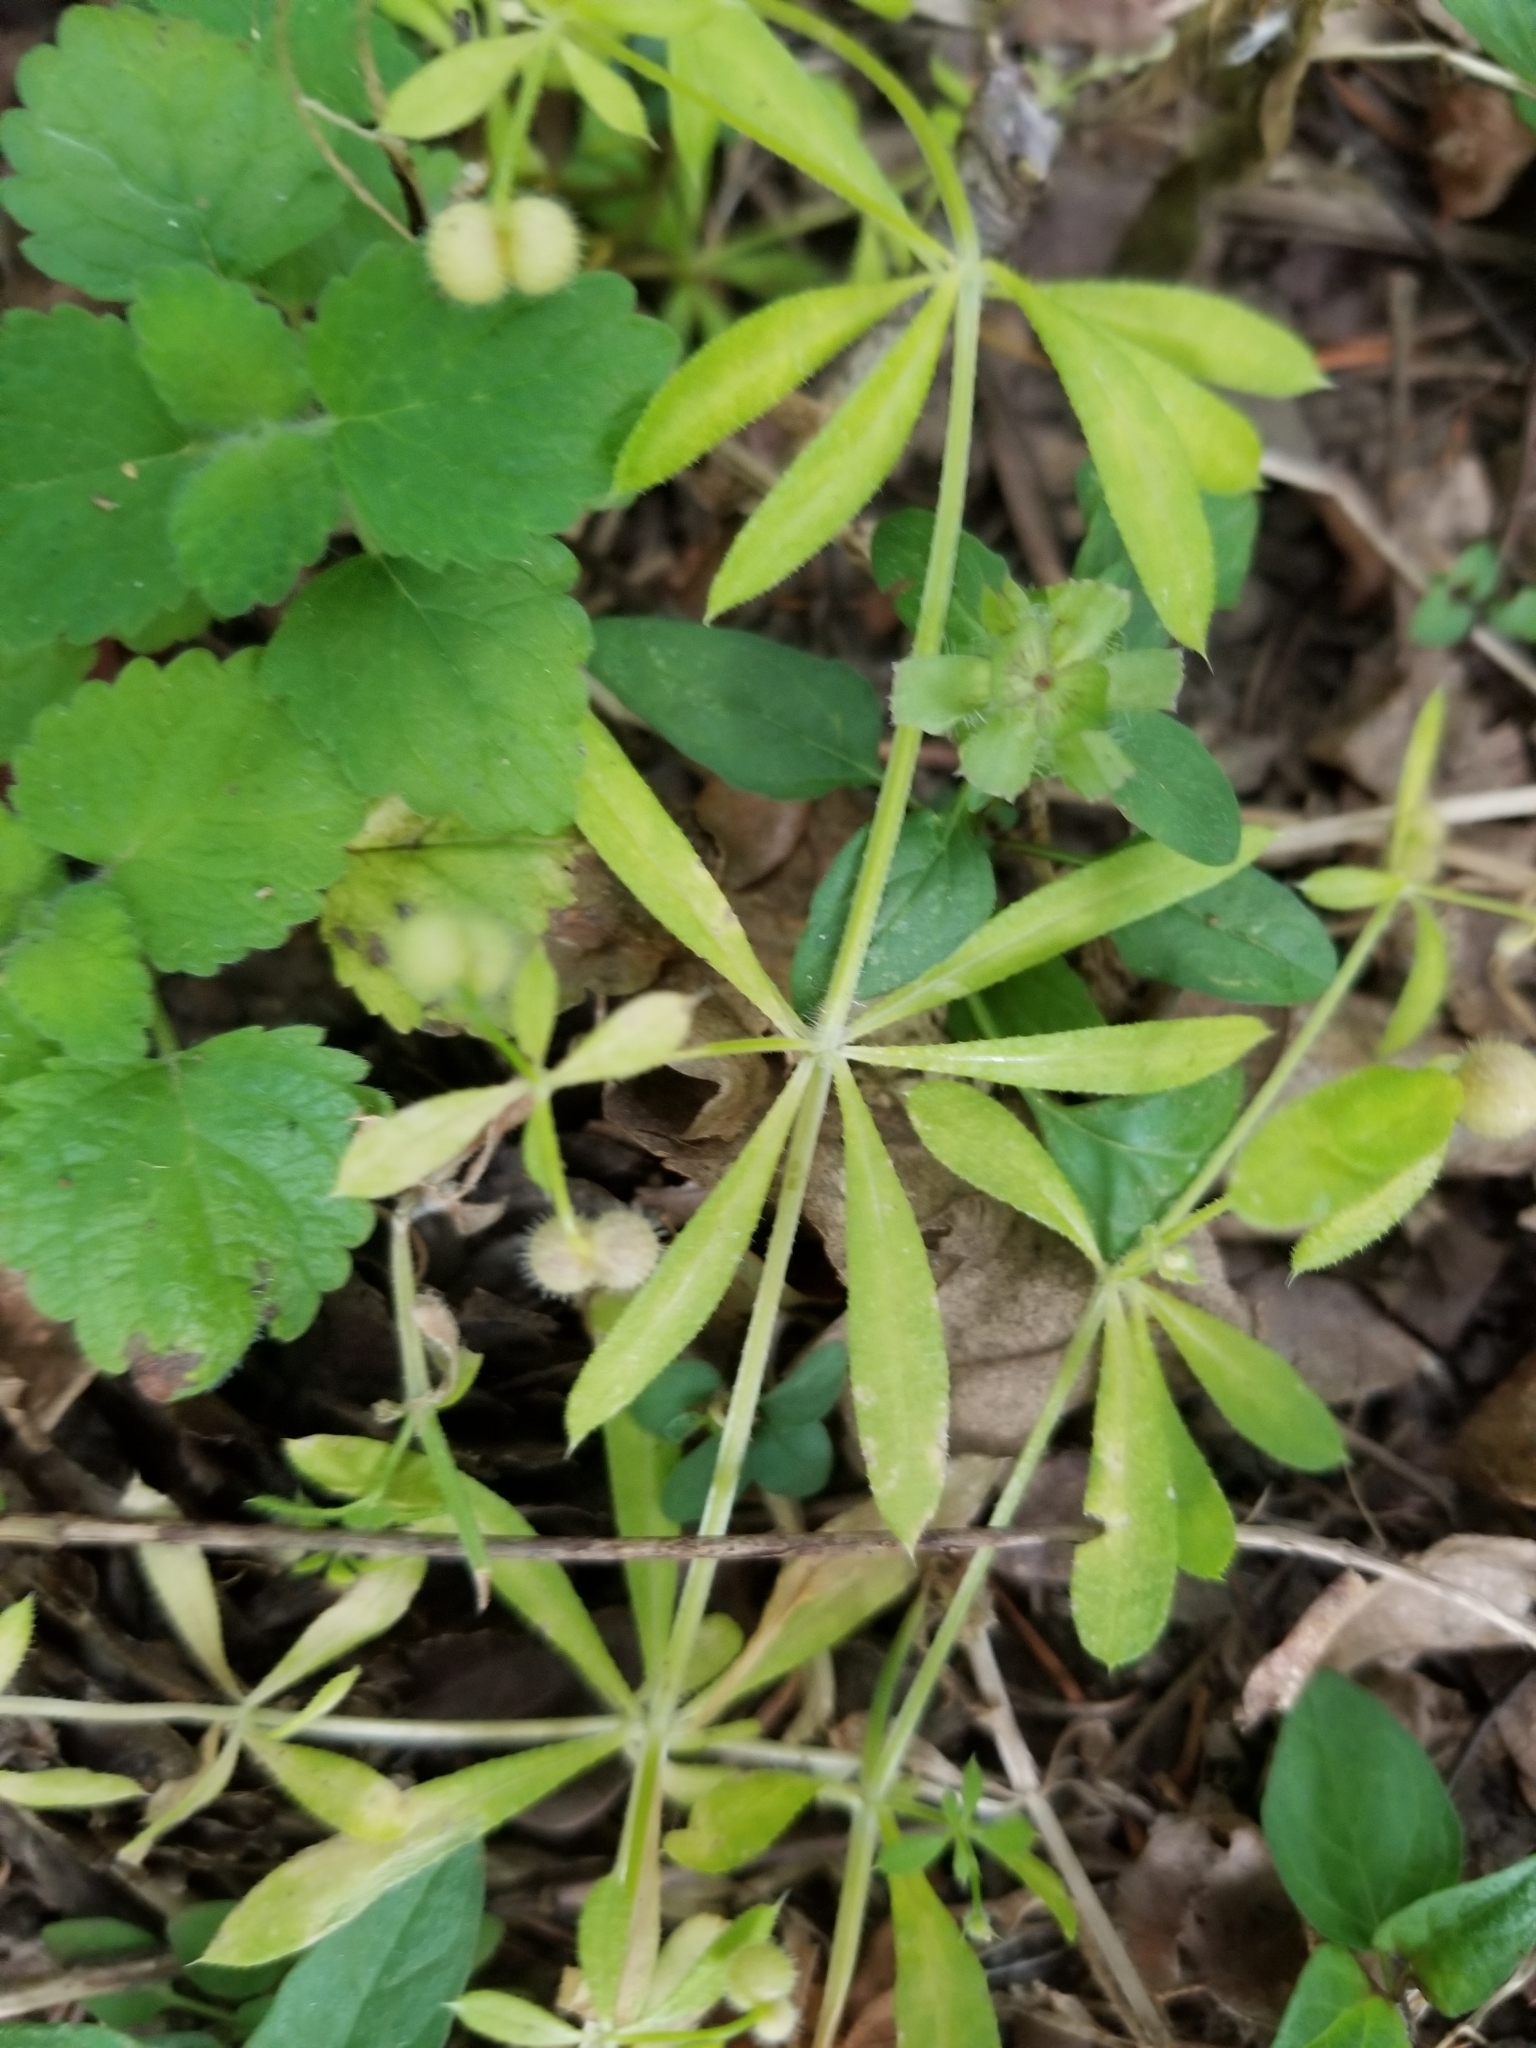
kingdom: Plantae
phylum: Tracheophyta
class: Magnoliopsida
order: Gentianales
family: Rubiaceae
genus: Galium
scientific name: Galium aparine
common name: Cleavers
